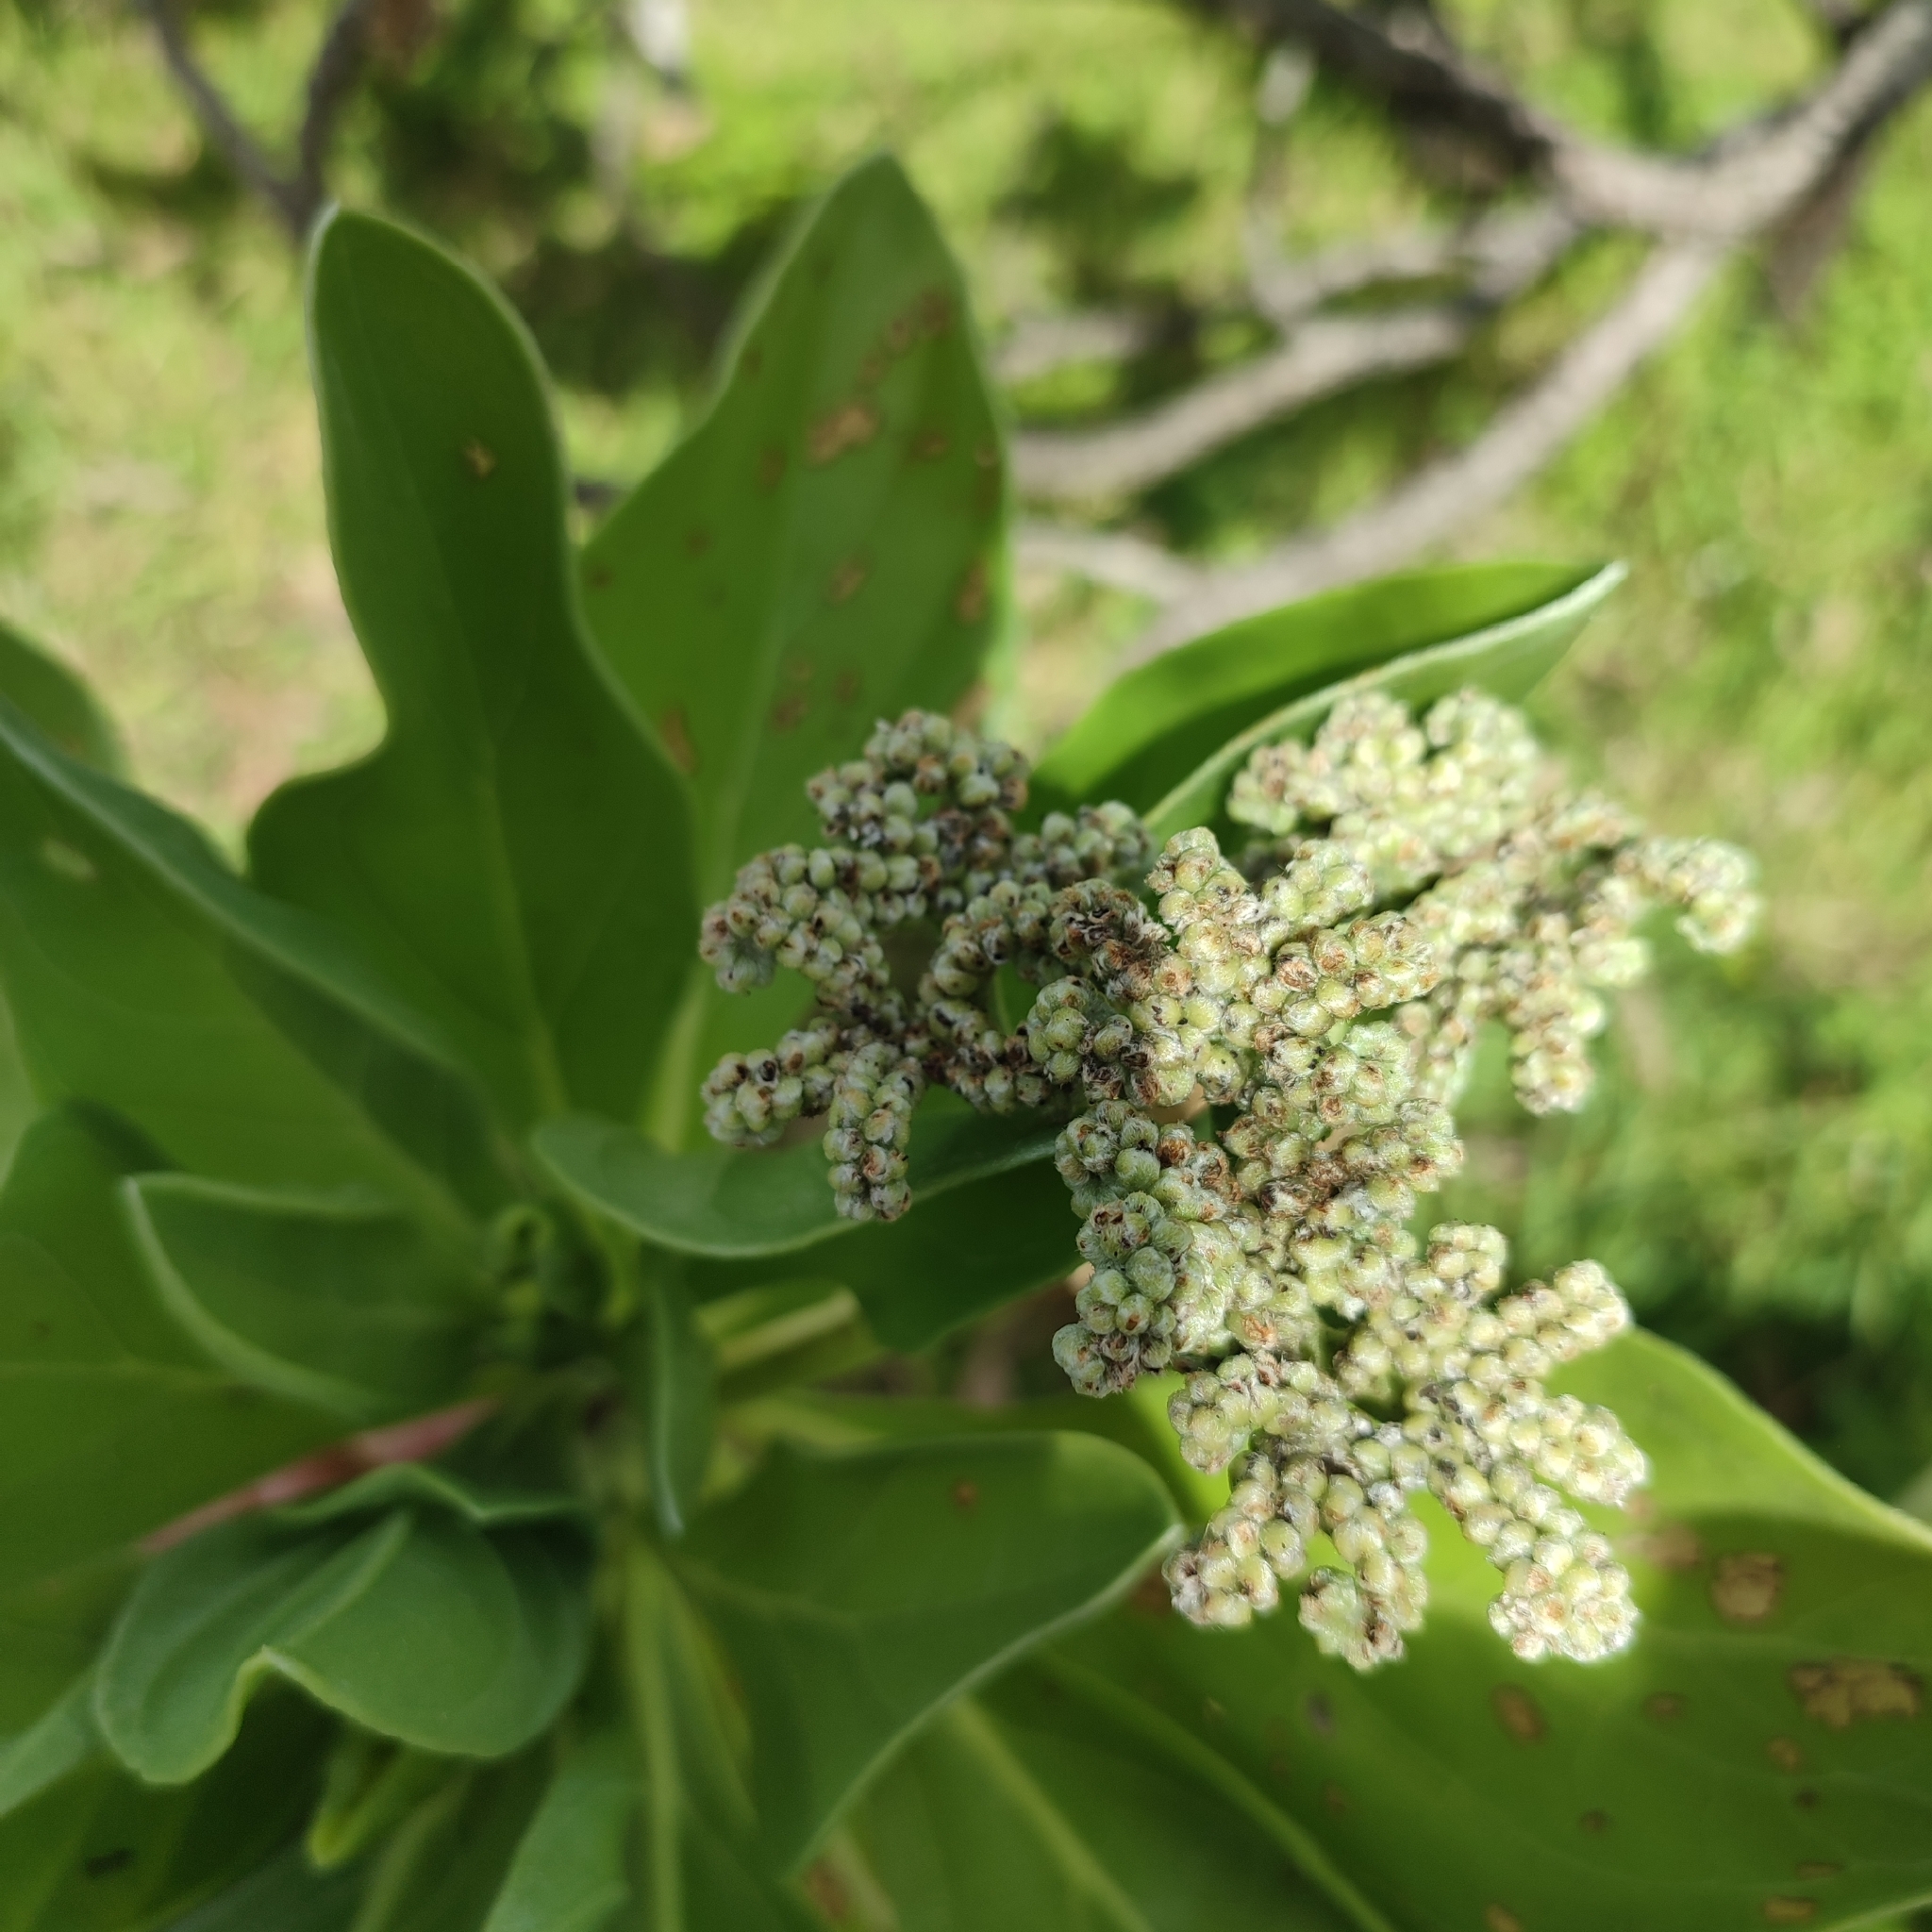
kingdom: Plantae
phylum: Tracheophyta
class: Magnoliopsida
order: Boraginales
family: Heliotropiaceae
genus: Heliotropium
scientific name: Heliotropium velutinum
